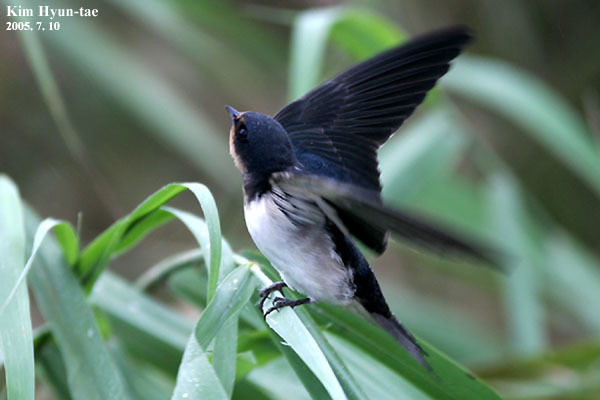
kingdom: Animalia
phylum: Chordata
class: Aves
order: Passeriformes
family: Hirundinidae
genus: Hirundo
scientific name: Hirundo rustica
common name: Barn swallow
